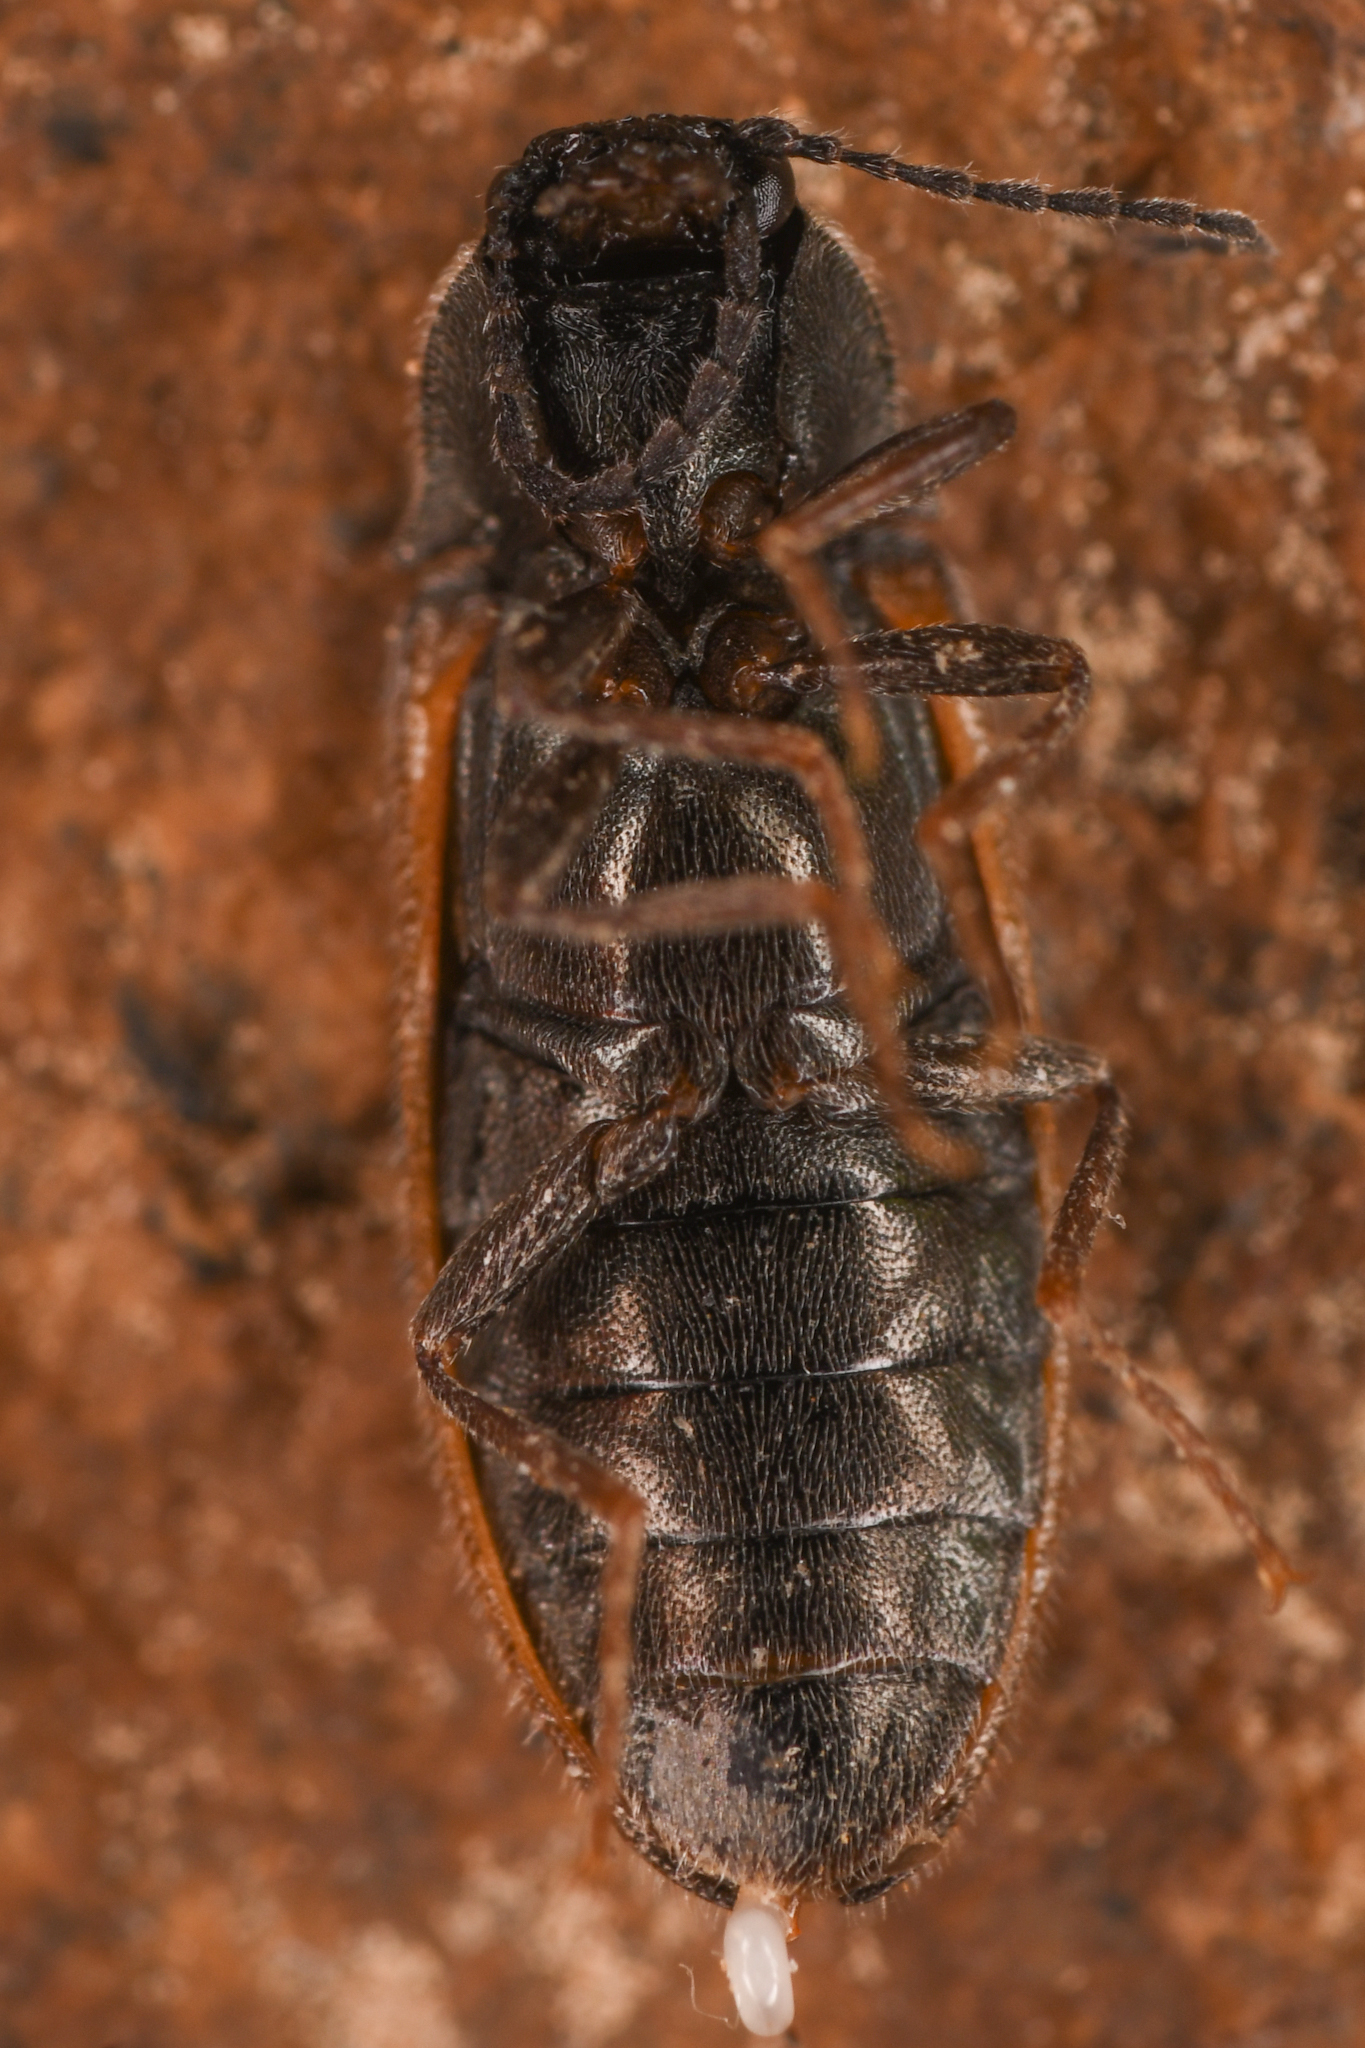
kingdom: Animalia
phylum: Arthropoda
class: Insecta
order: Coleoptera
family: Elateridae
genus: Eanus
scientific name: Eanus decoratus
